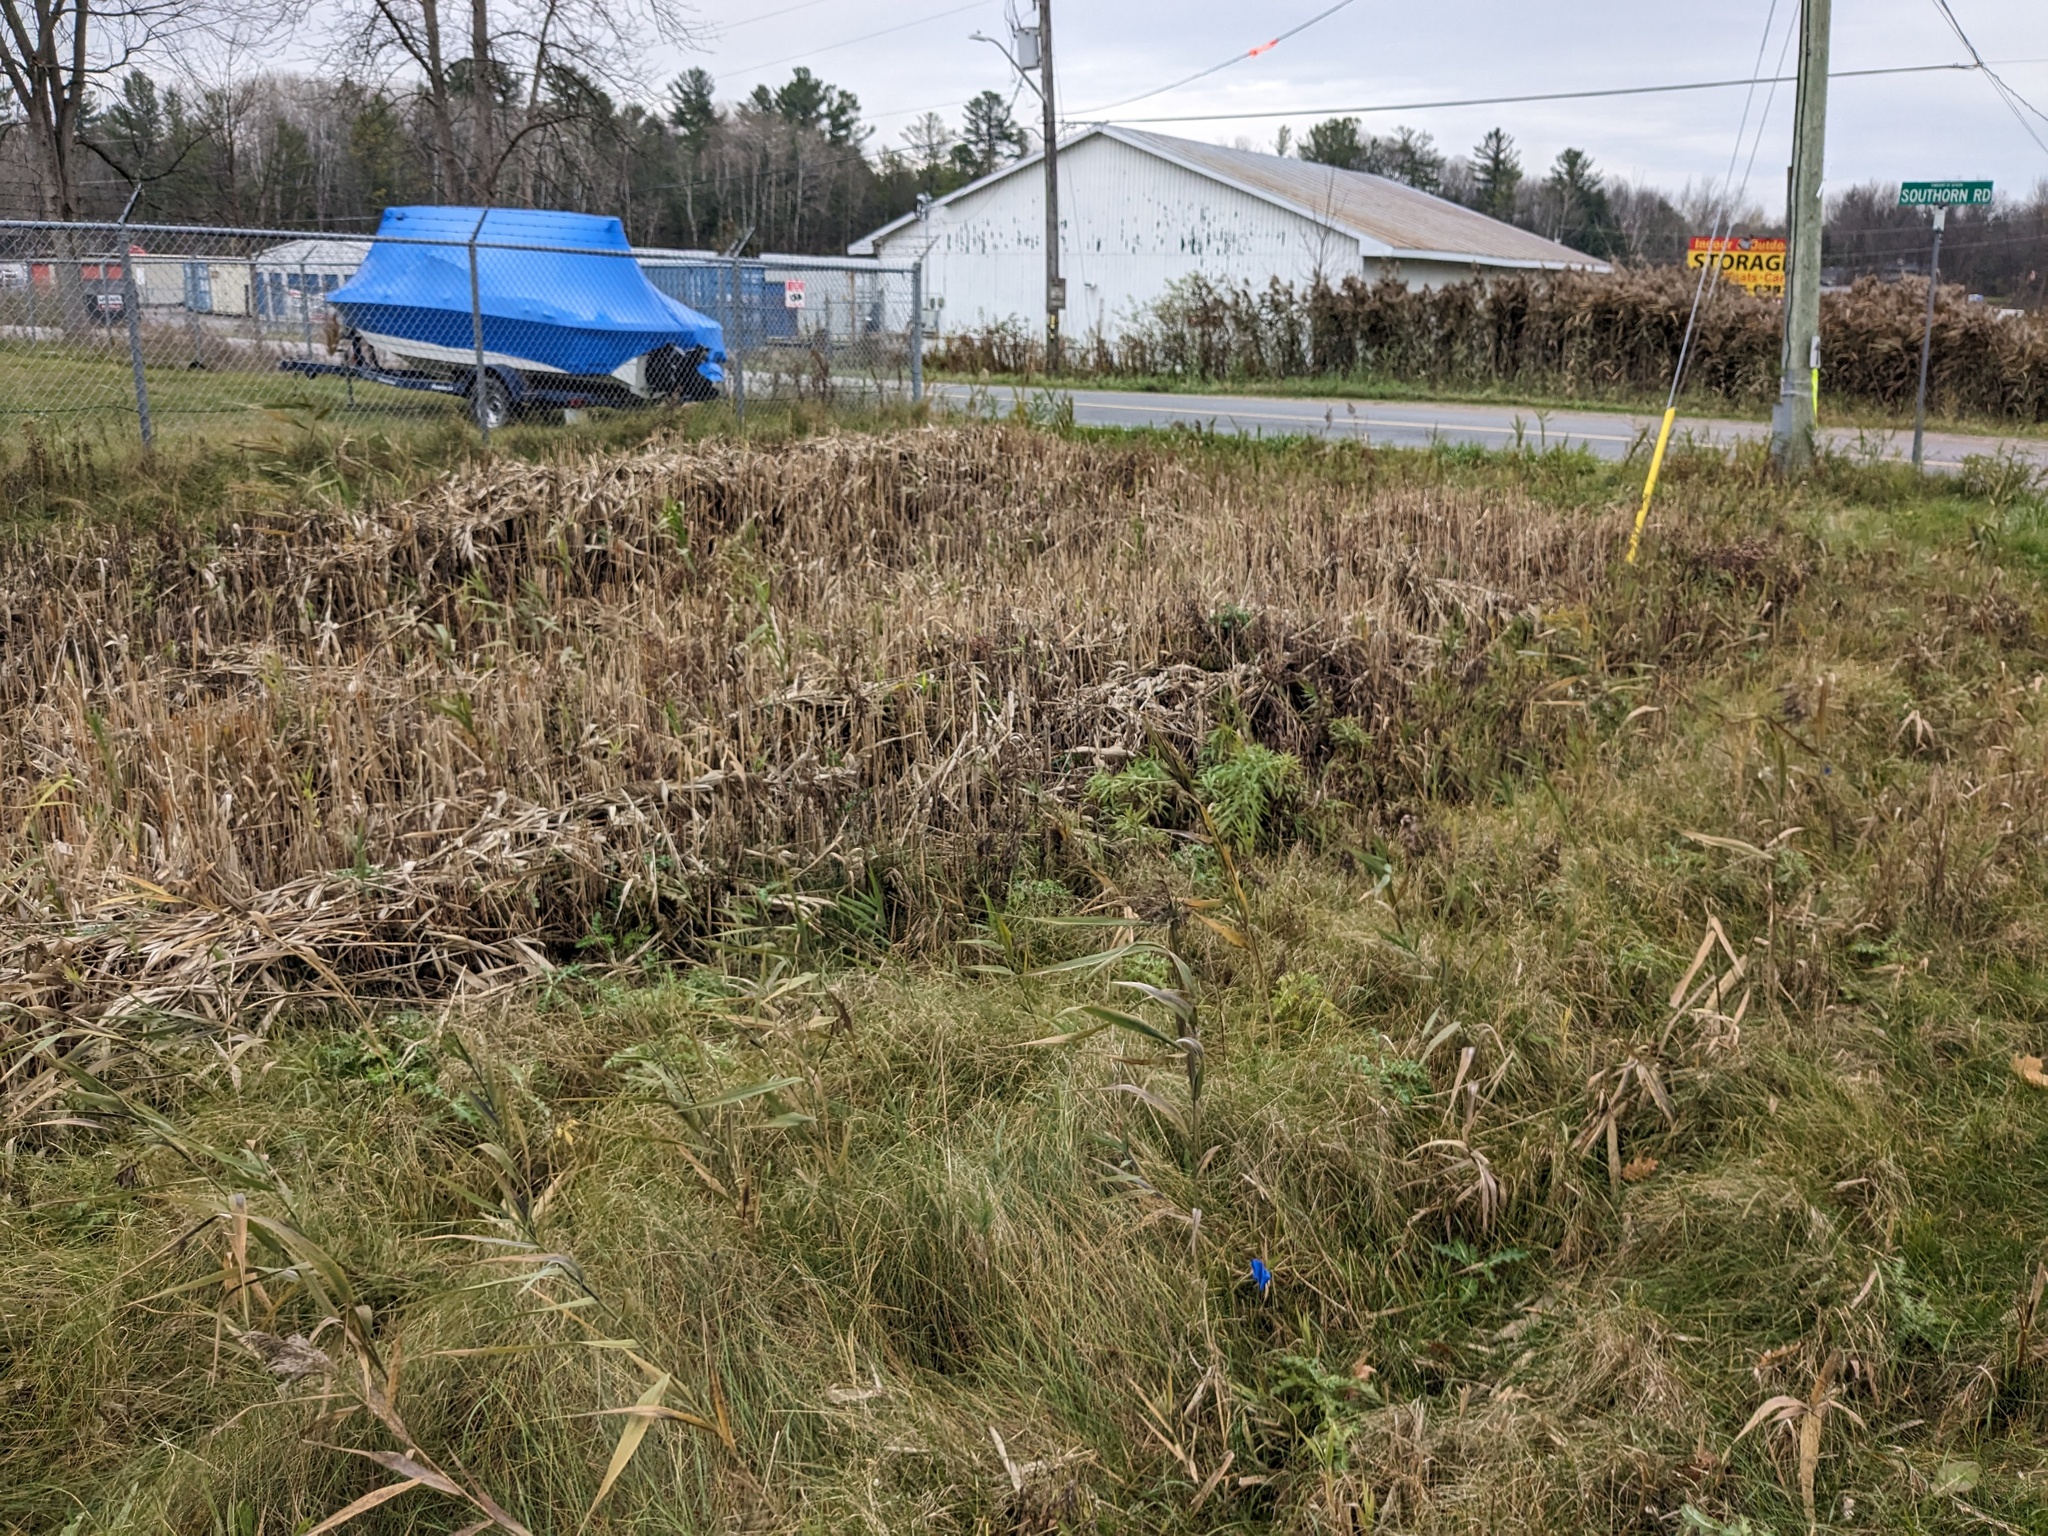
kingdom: Plantae
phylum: Tracheophyta
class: Liliopsida
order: Poales
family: Poaceae
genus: Phragmites
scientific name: Phragmites australis
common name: Common reed
